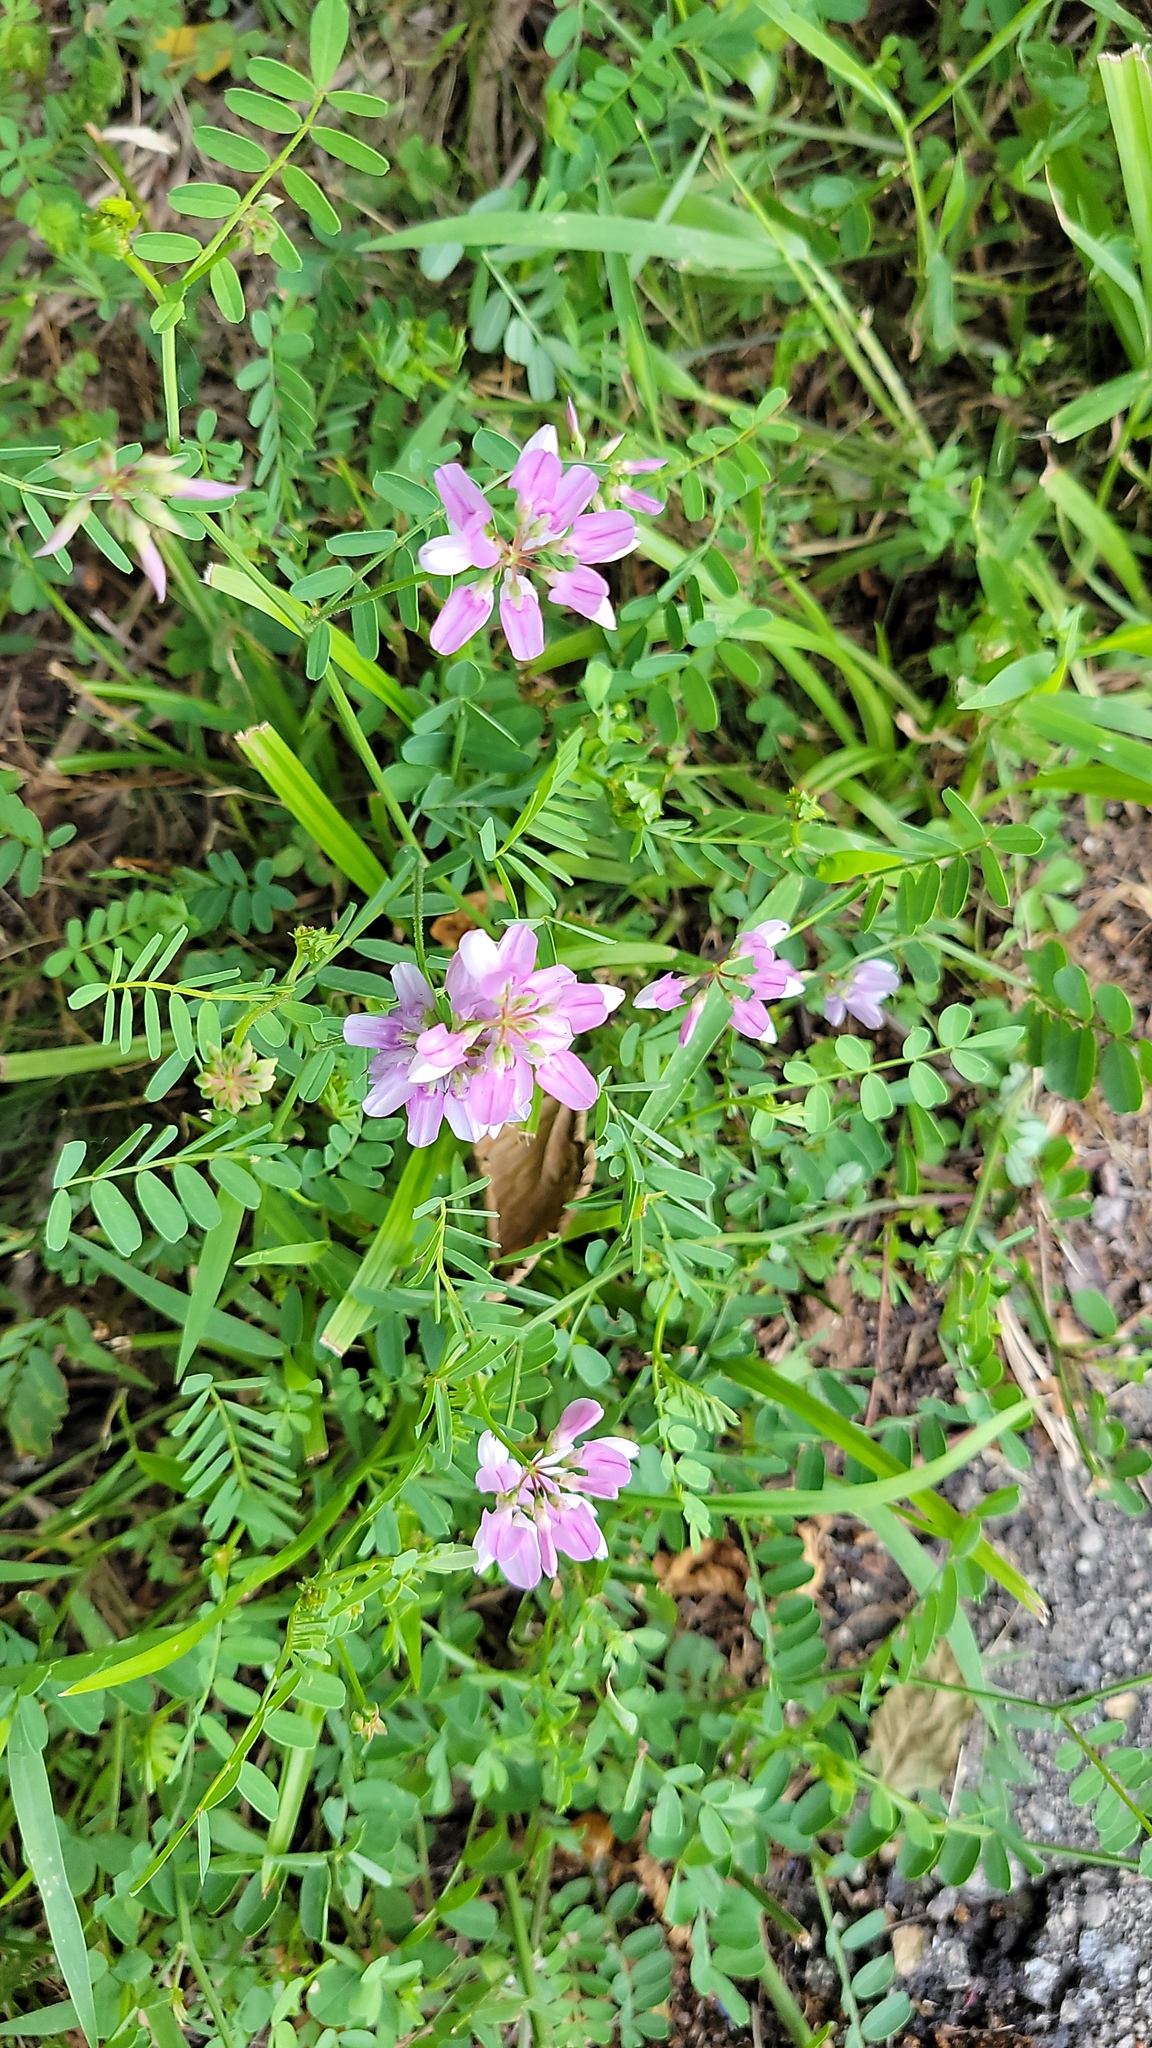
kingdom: Plantae
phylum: Tracheophyta
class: Magnoliopsida
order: Fabales
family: Fabaceae
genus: Coronilla
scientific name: Coronilla varia
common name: Crownvetch
